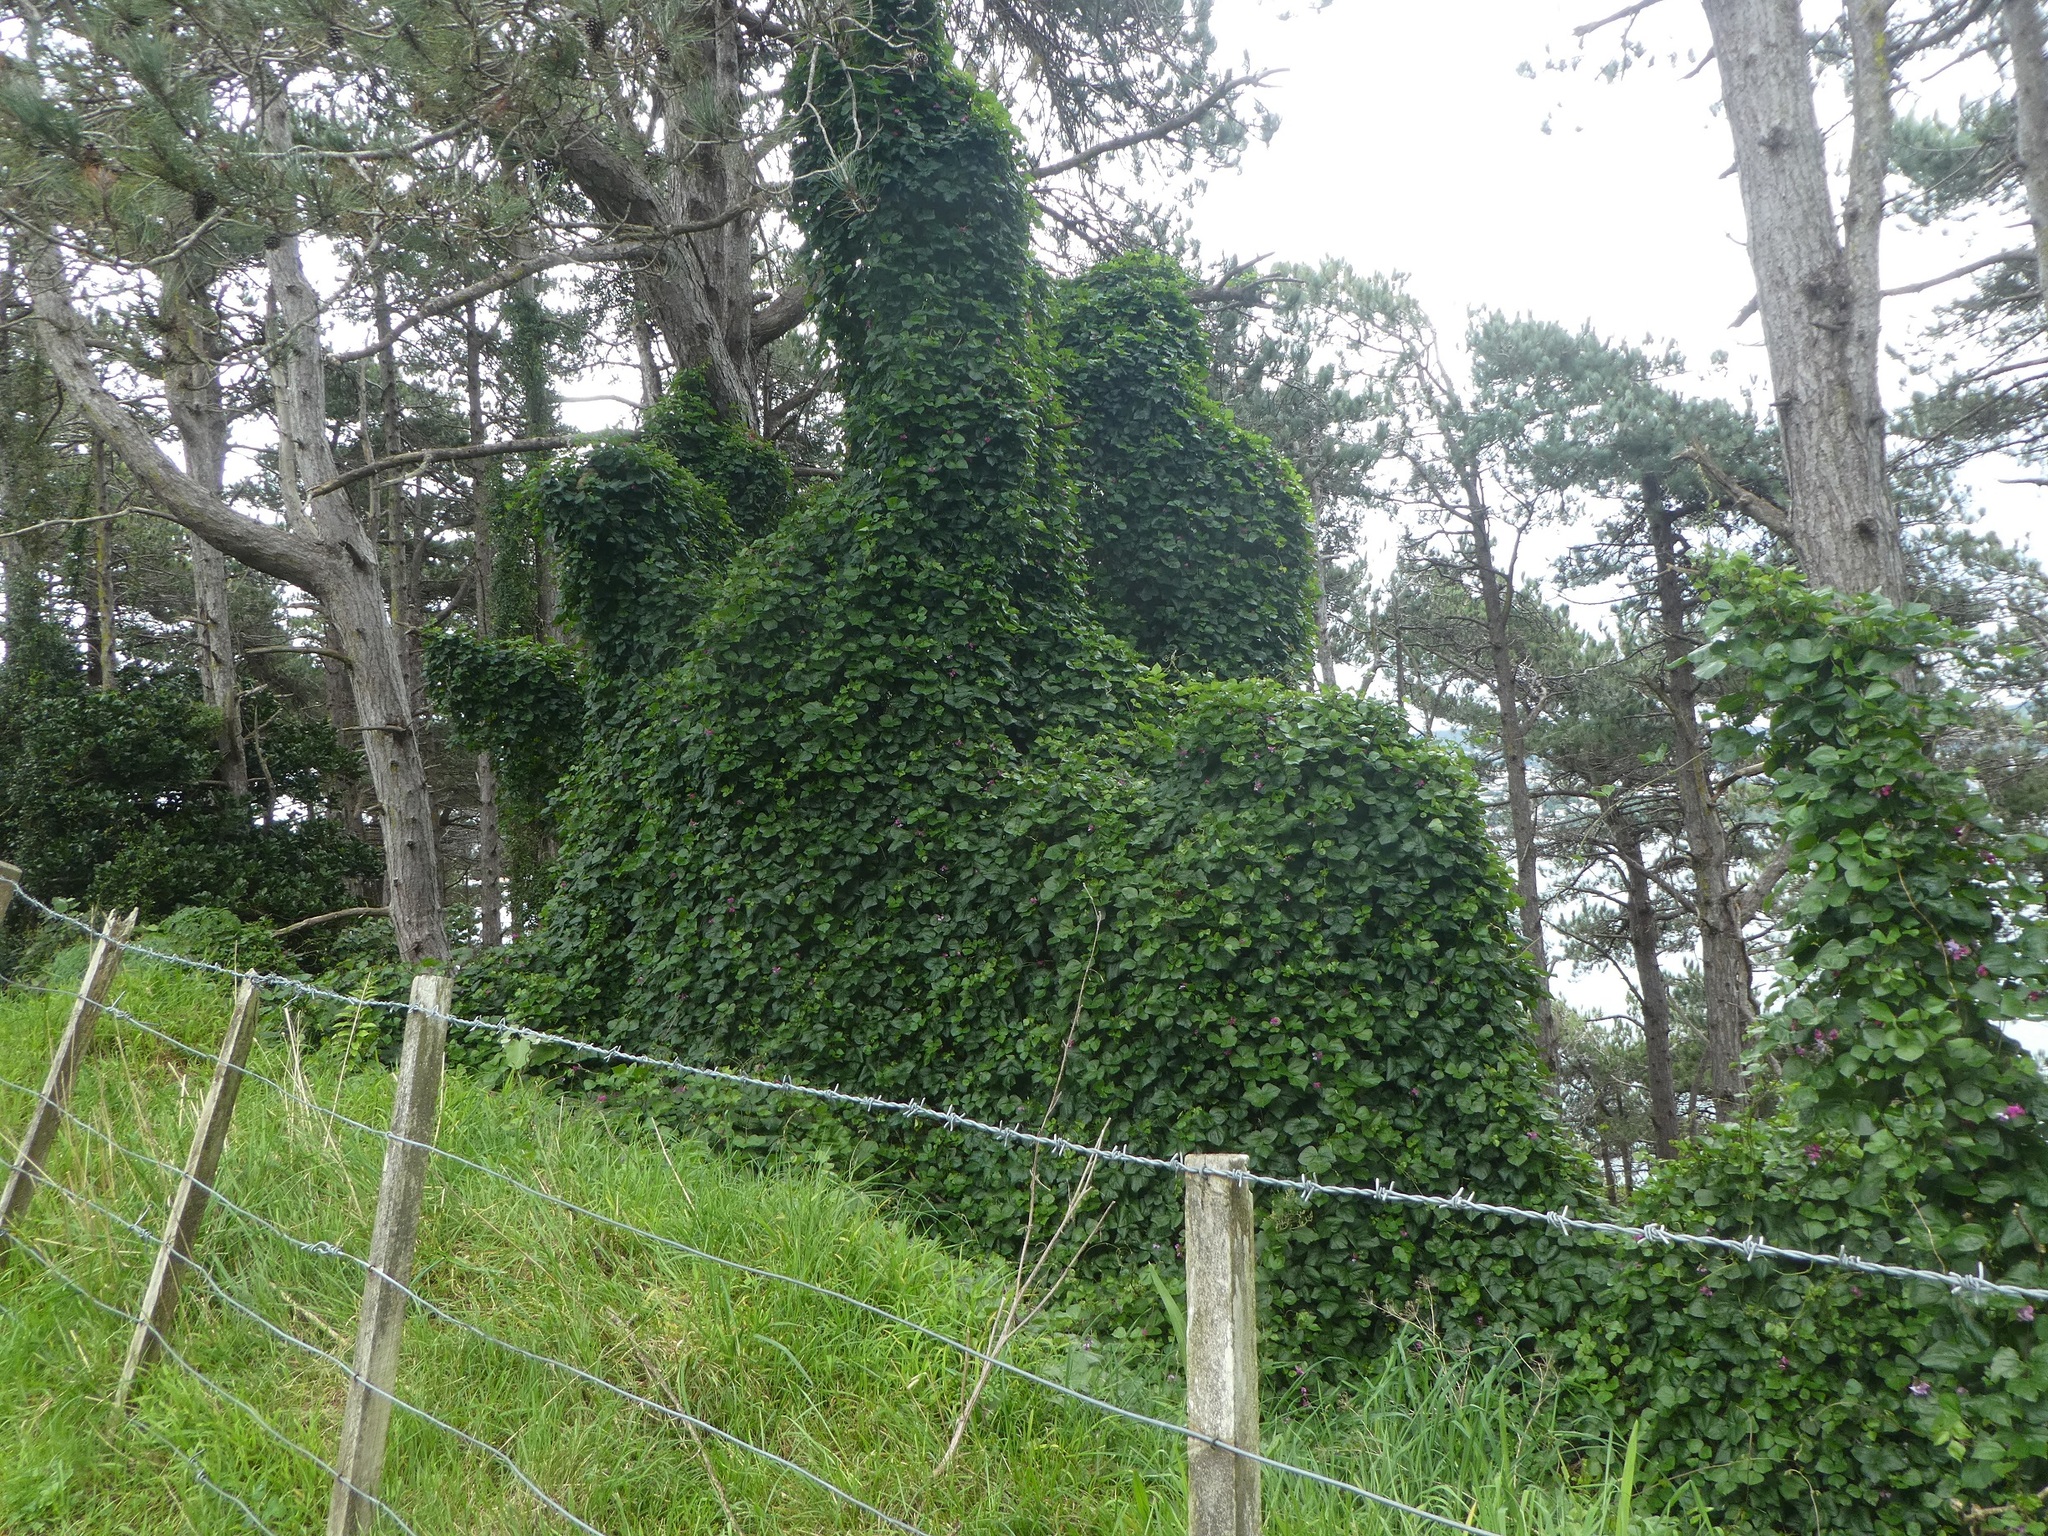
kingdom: Plantae
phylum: Tracheophyta
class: Magnoliopsida
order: Fabales
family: Fabaceae
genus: Dipogon
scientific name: Dipogon lignosus
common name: Okie bean
